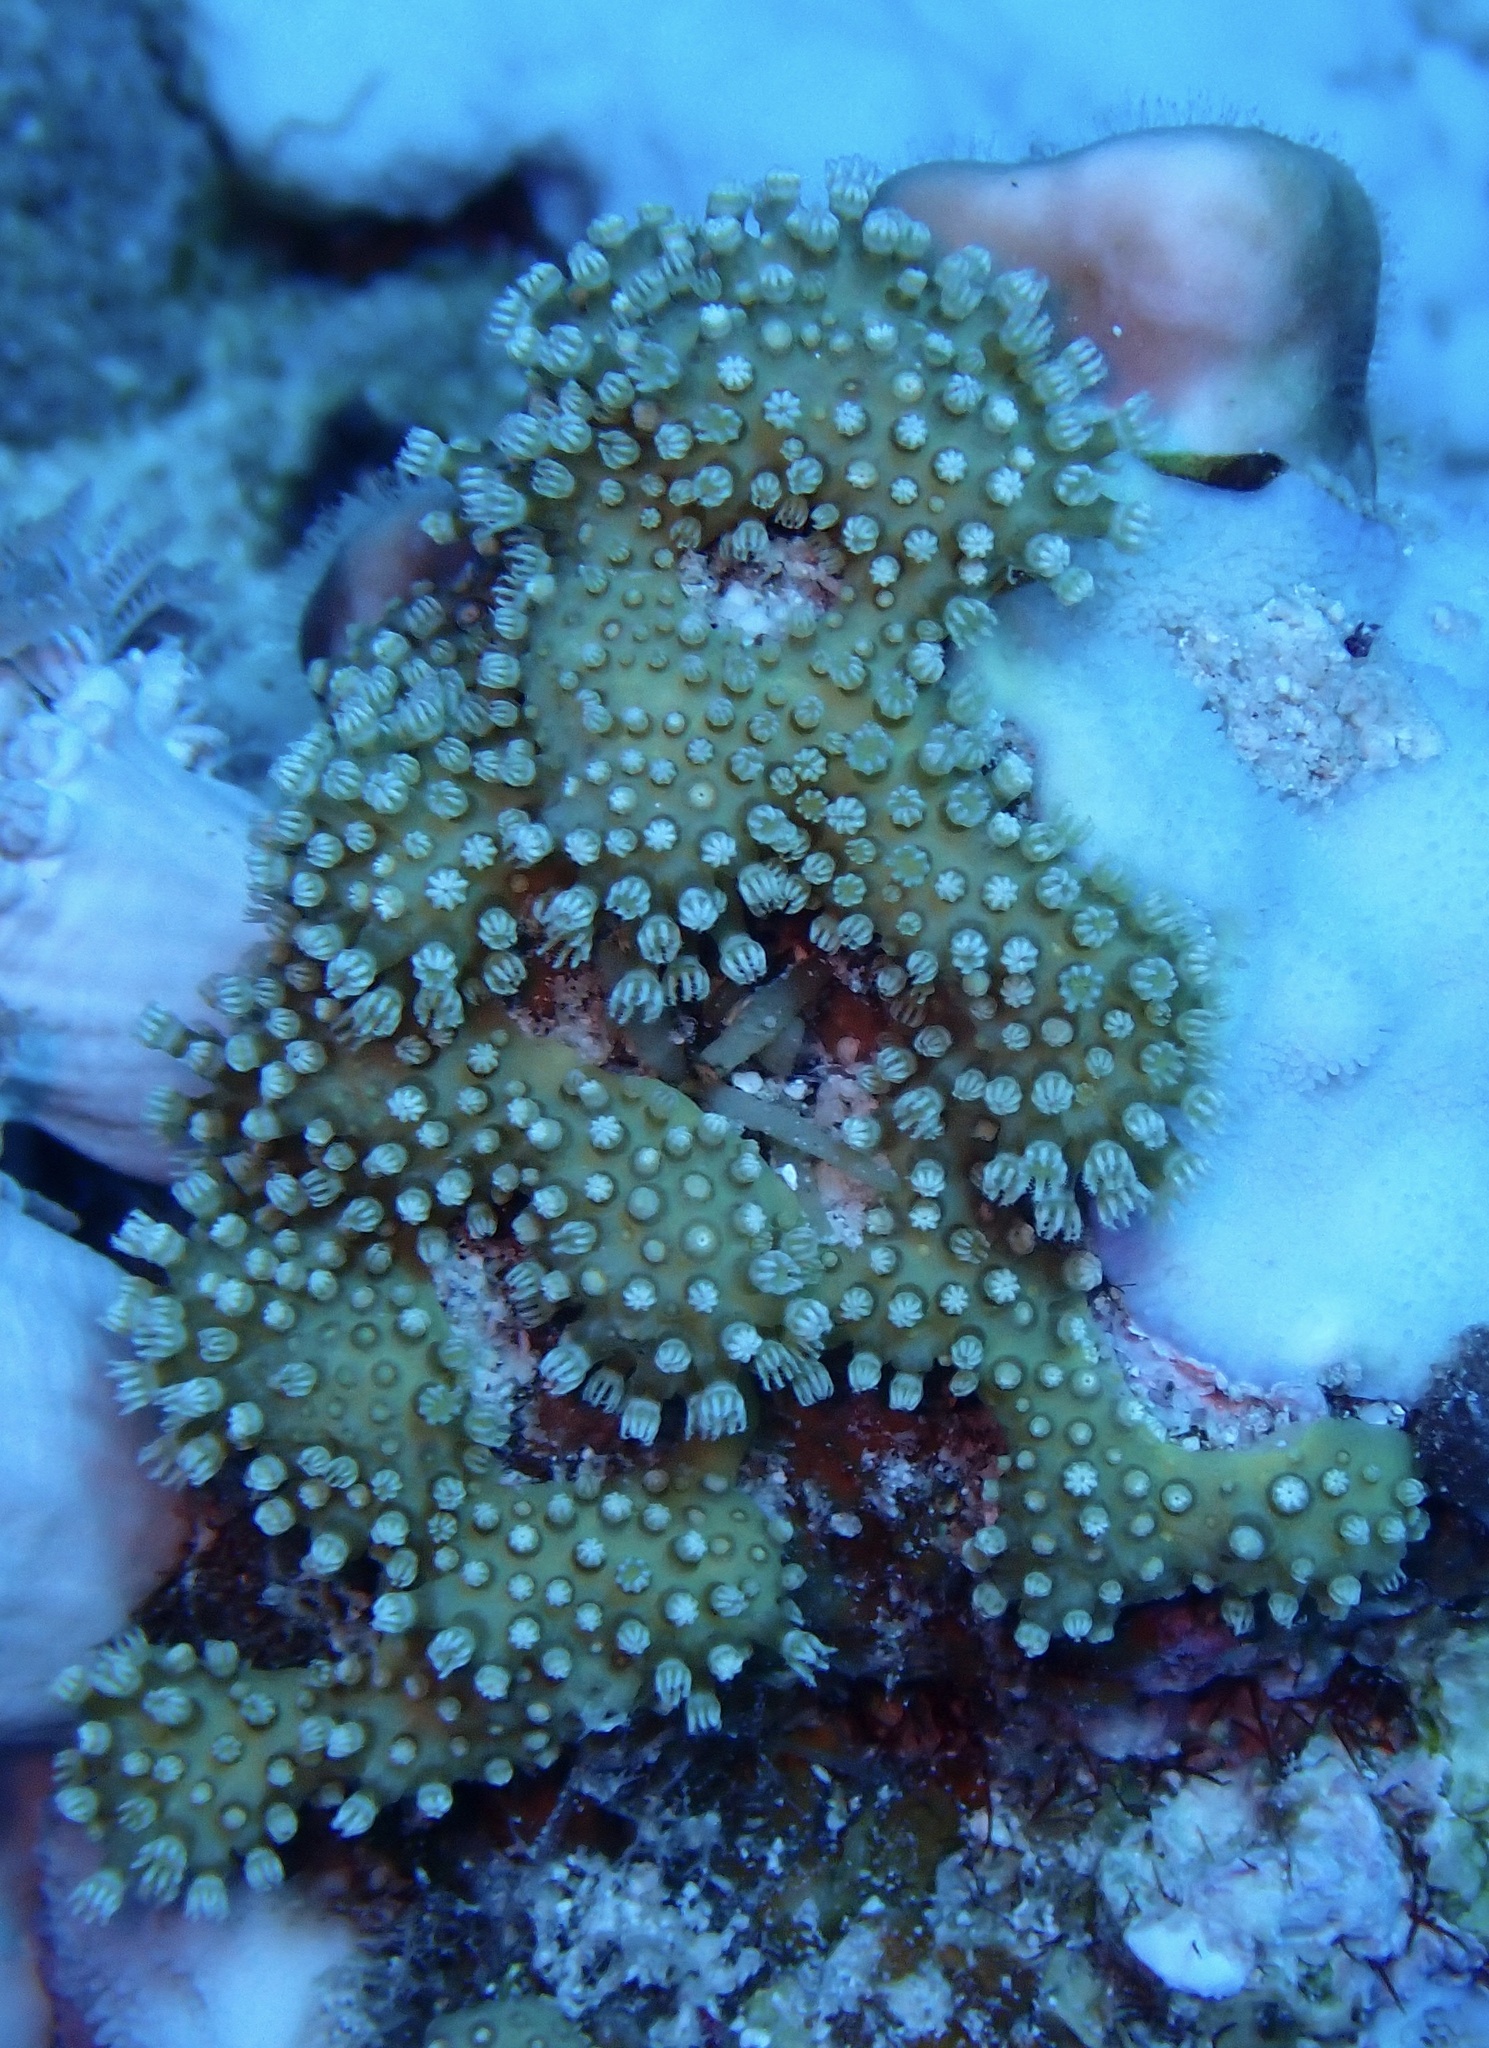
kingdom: Animalia
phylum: Cnidaria
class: Anthozoa
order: Malacalcyonacea
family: Lemnaliadae
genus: Rhytisma
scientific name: Rhytisma fulvum
